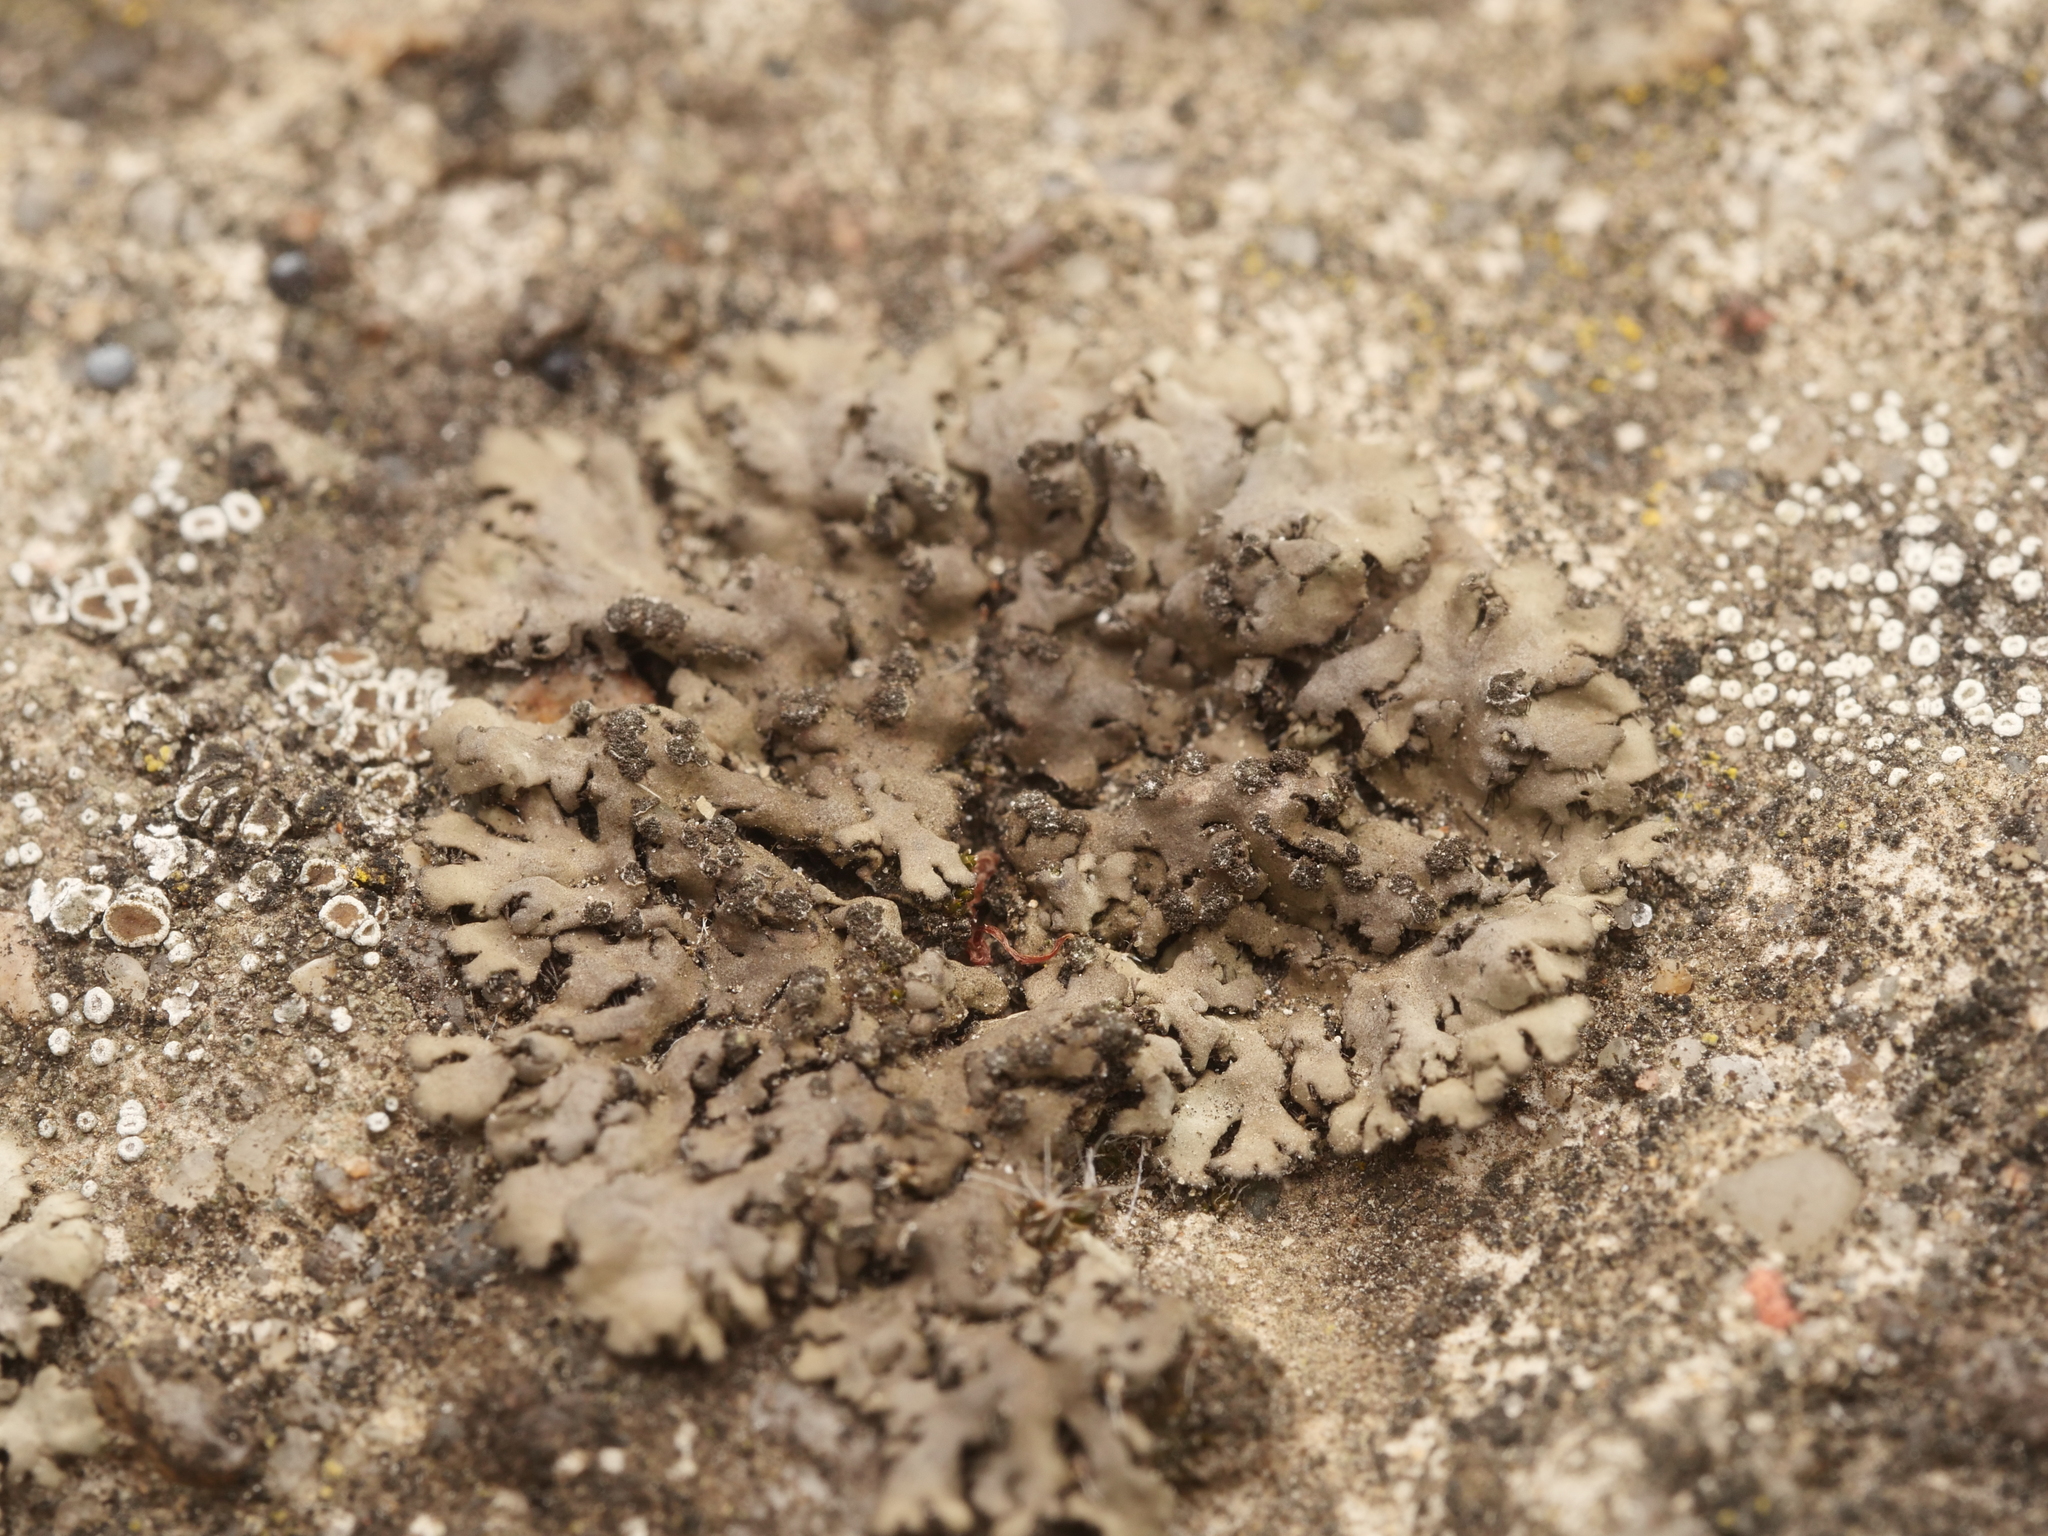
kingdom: Fungi
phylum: Ascomycota
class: Lecanoromycetes
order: Caliciales
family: Physciaceae
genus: Phaeophyscia
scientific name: Phaeophyscia orbicularis
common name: Mealy shadow lichen
